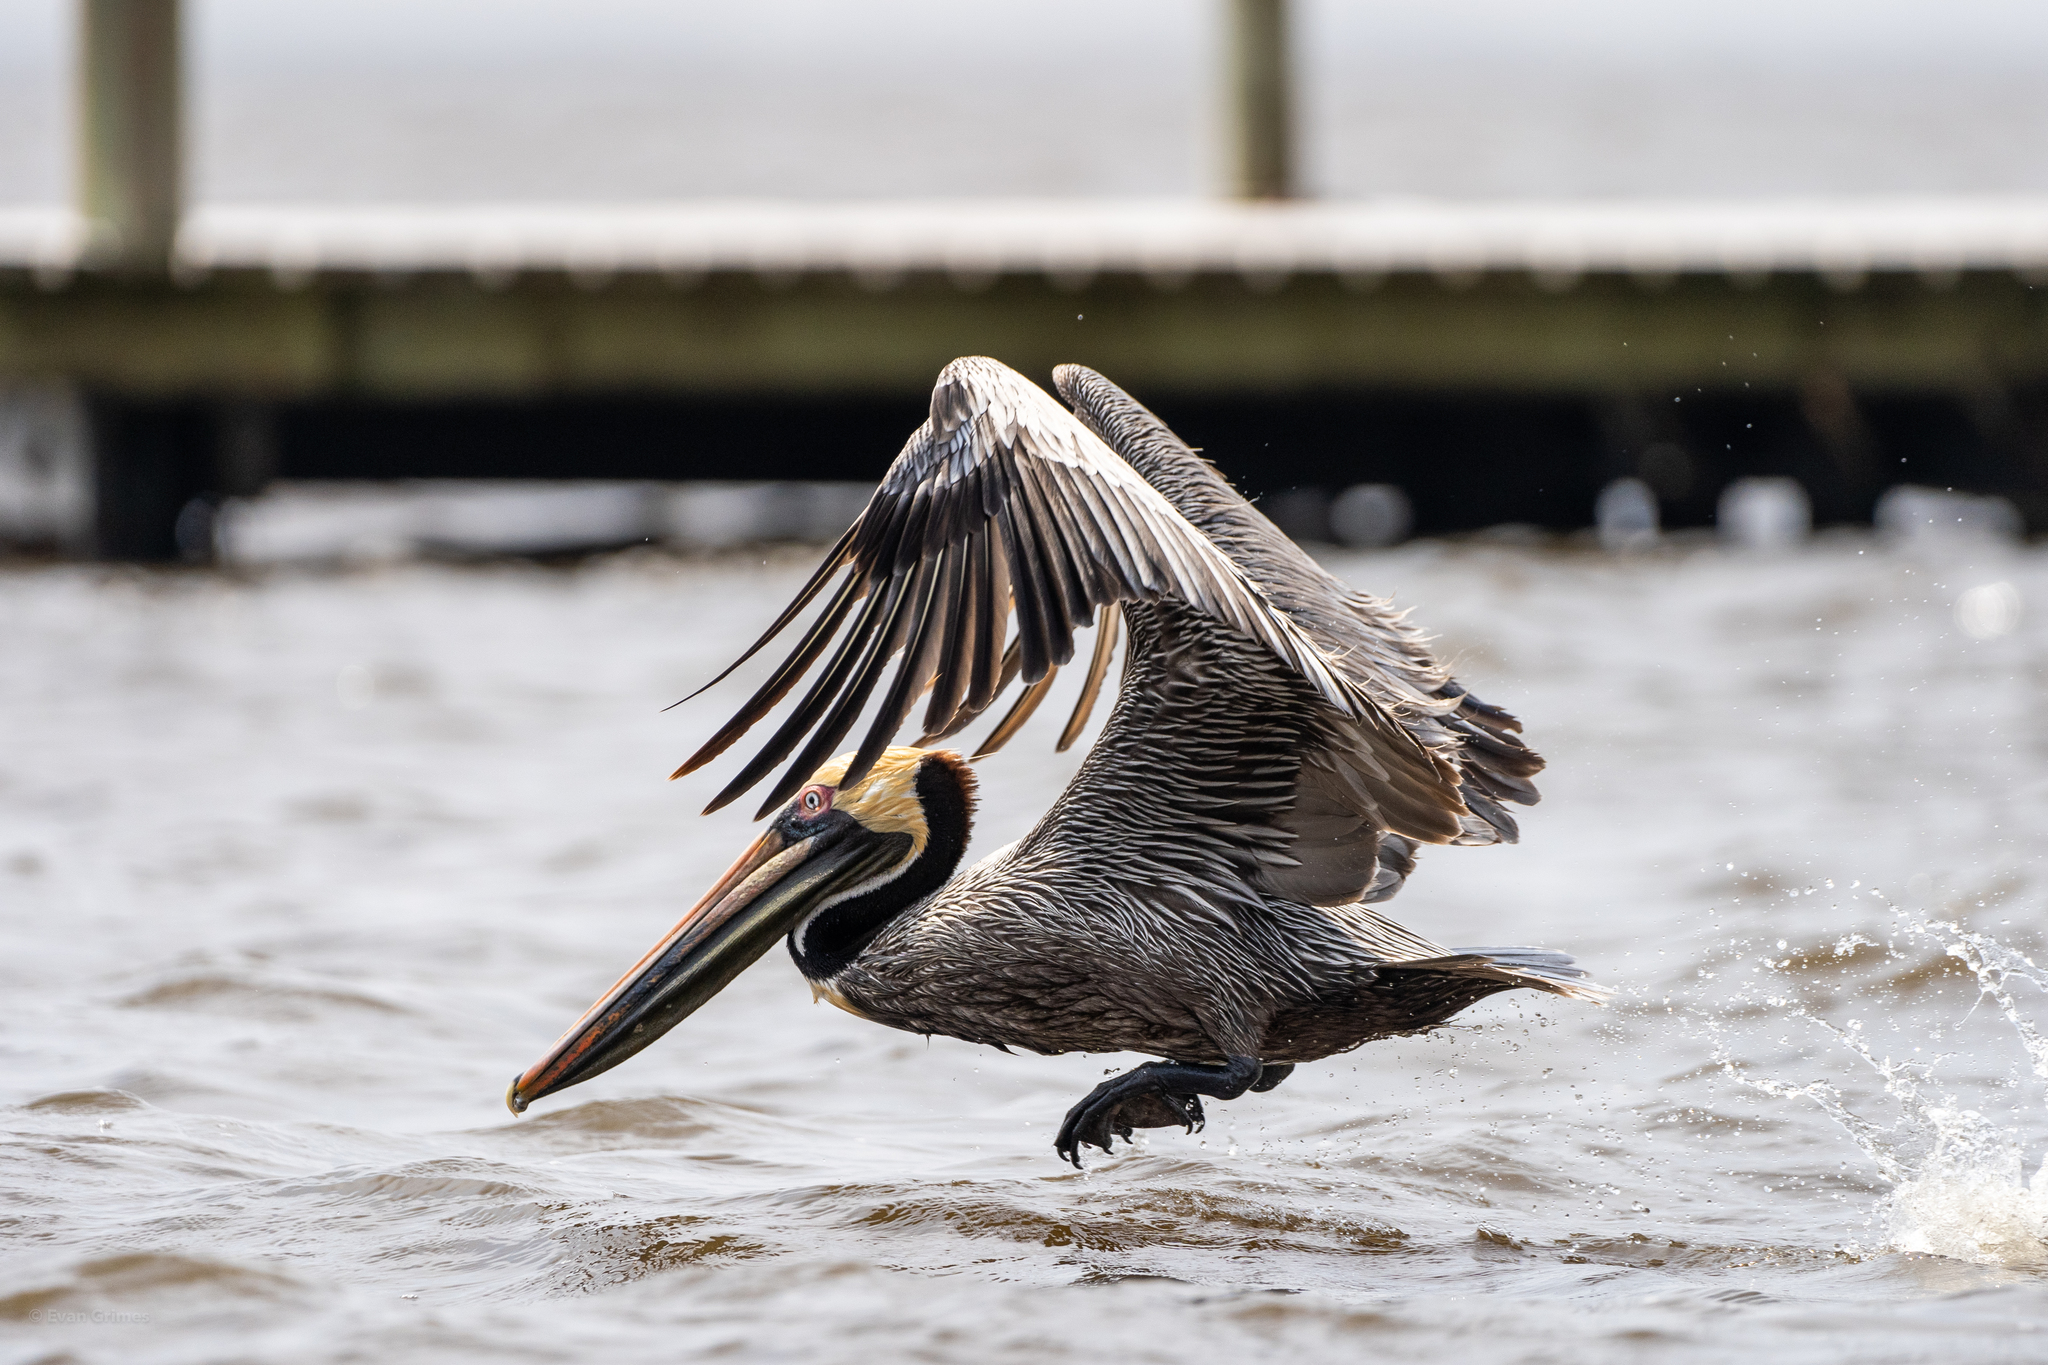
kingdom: Animalia
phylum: Chordata
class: Aves
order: Pelecaniformes
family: Pelecanidae
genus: Pelecanus
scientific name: Pelecanus occidentalis
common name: Brown pelican
